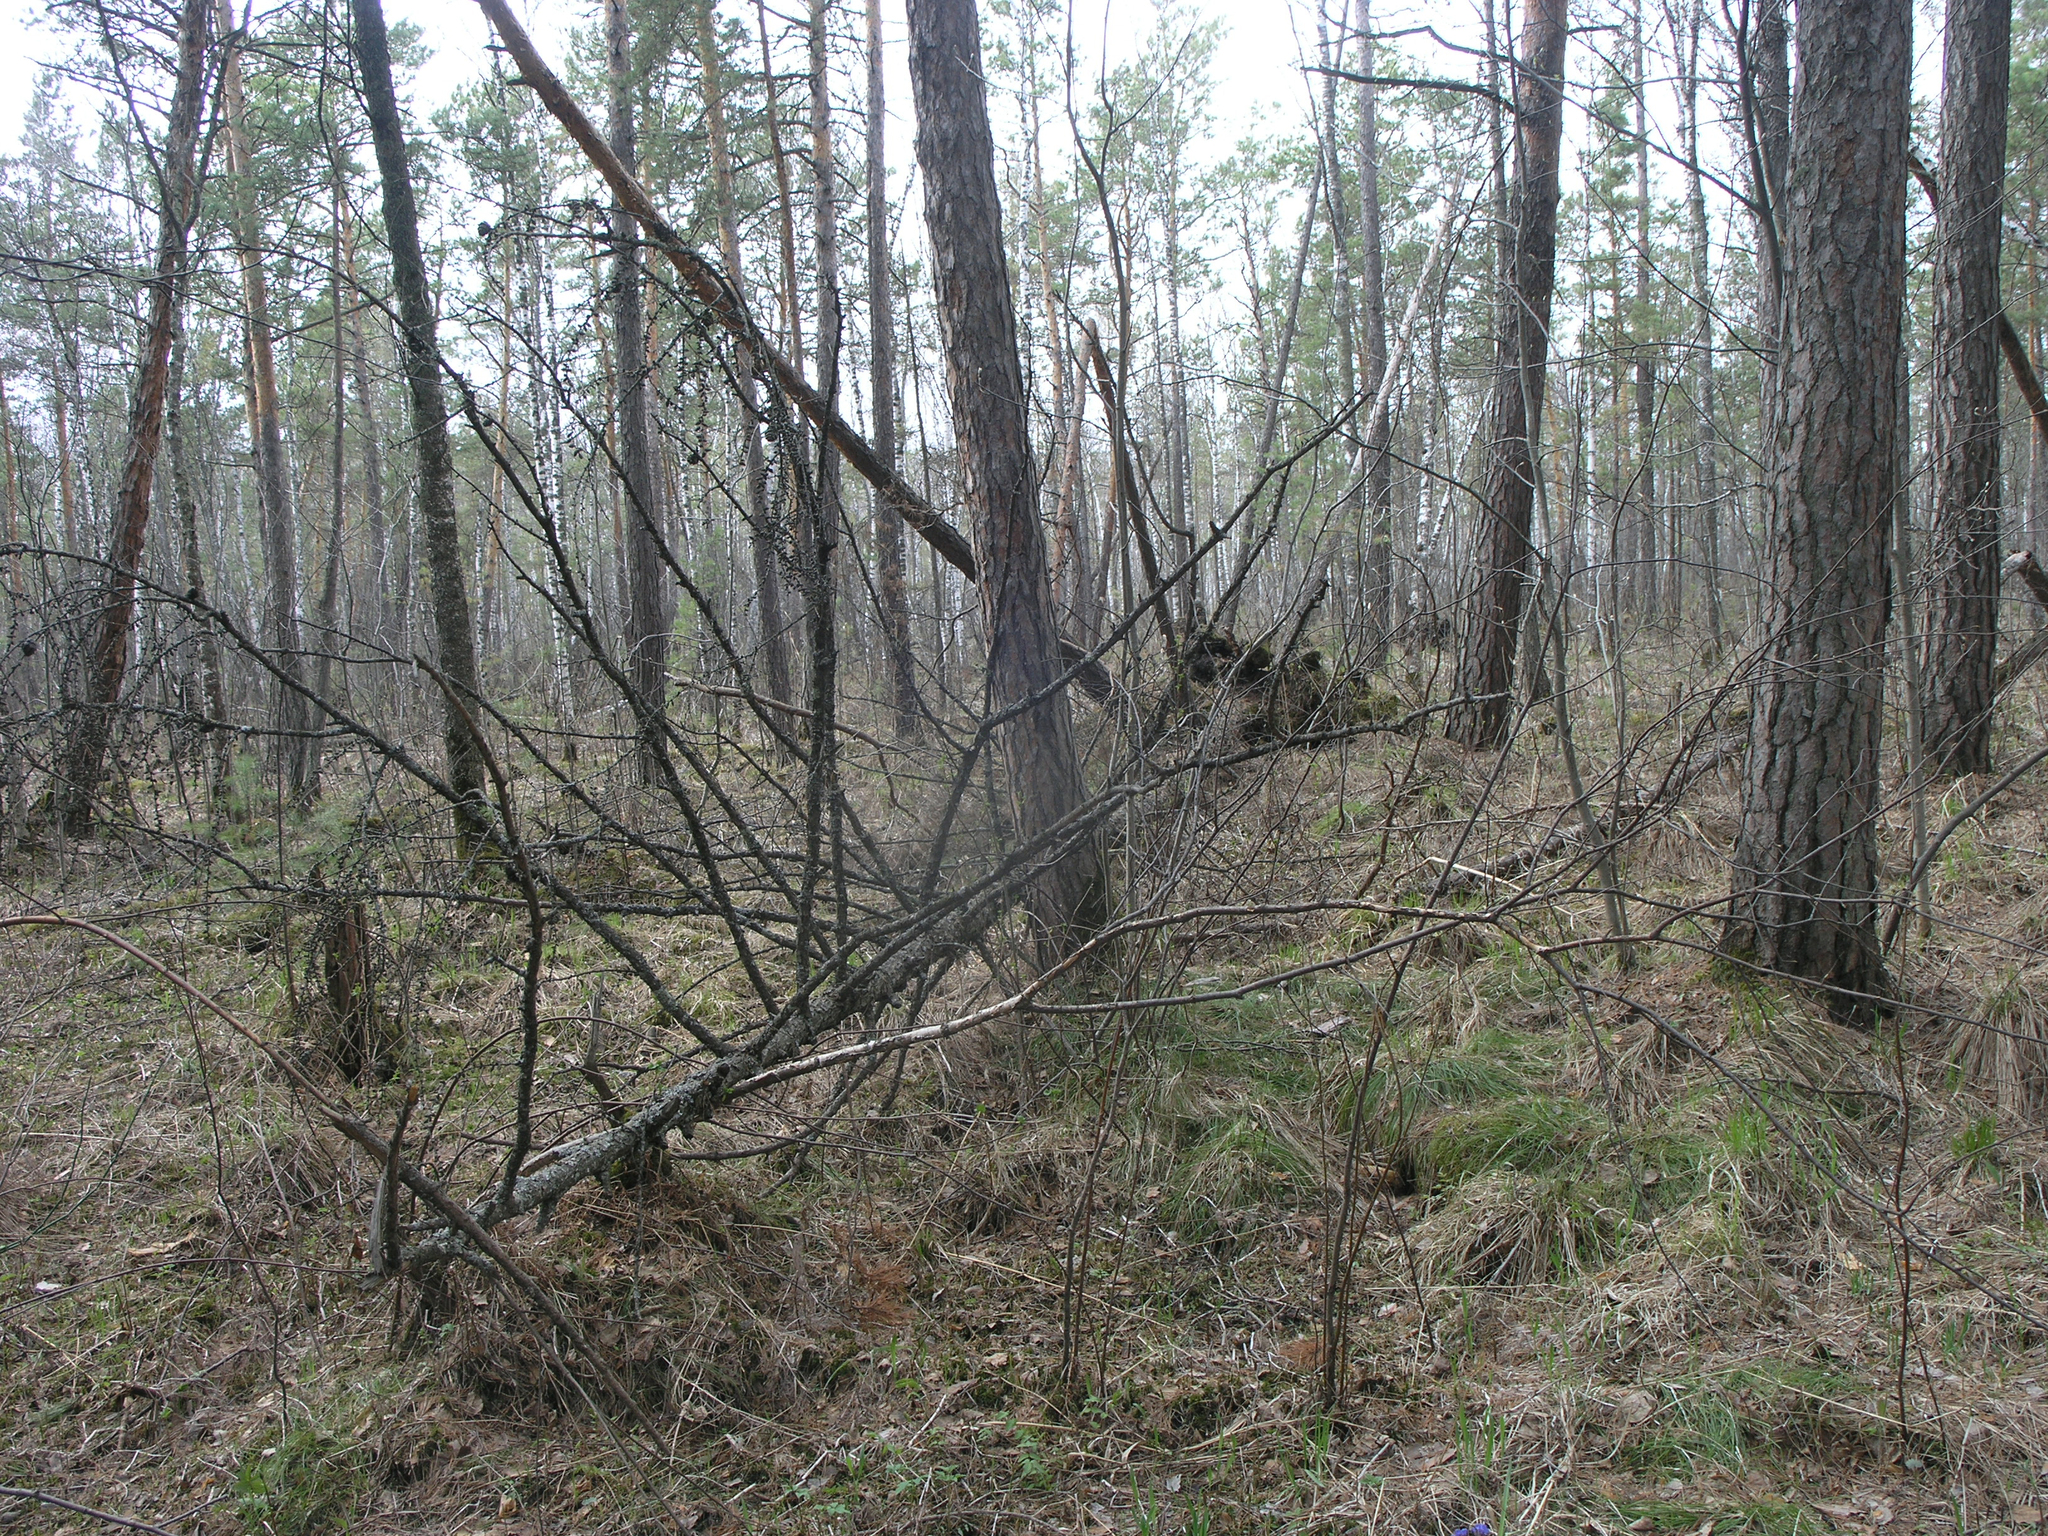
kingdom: Plantae
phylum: Tracheophyta
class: Pinopsida
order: Pinales
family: Pinaceae
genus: Pinus
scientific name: Pinus sylvestris
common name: Scots pine
